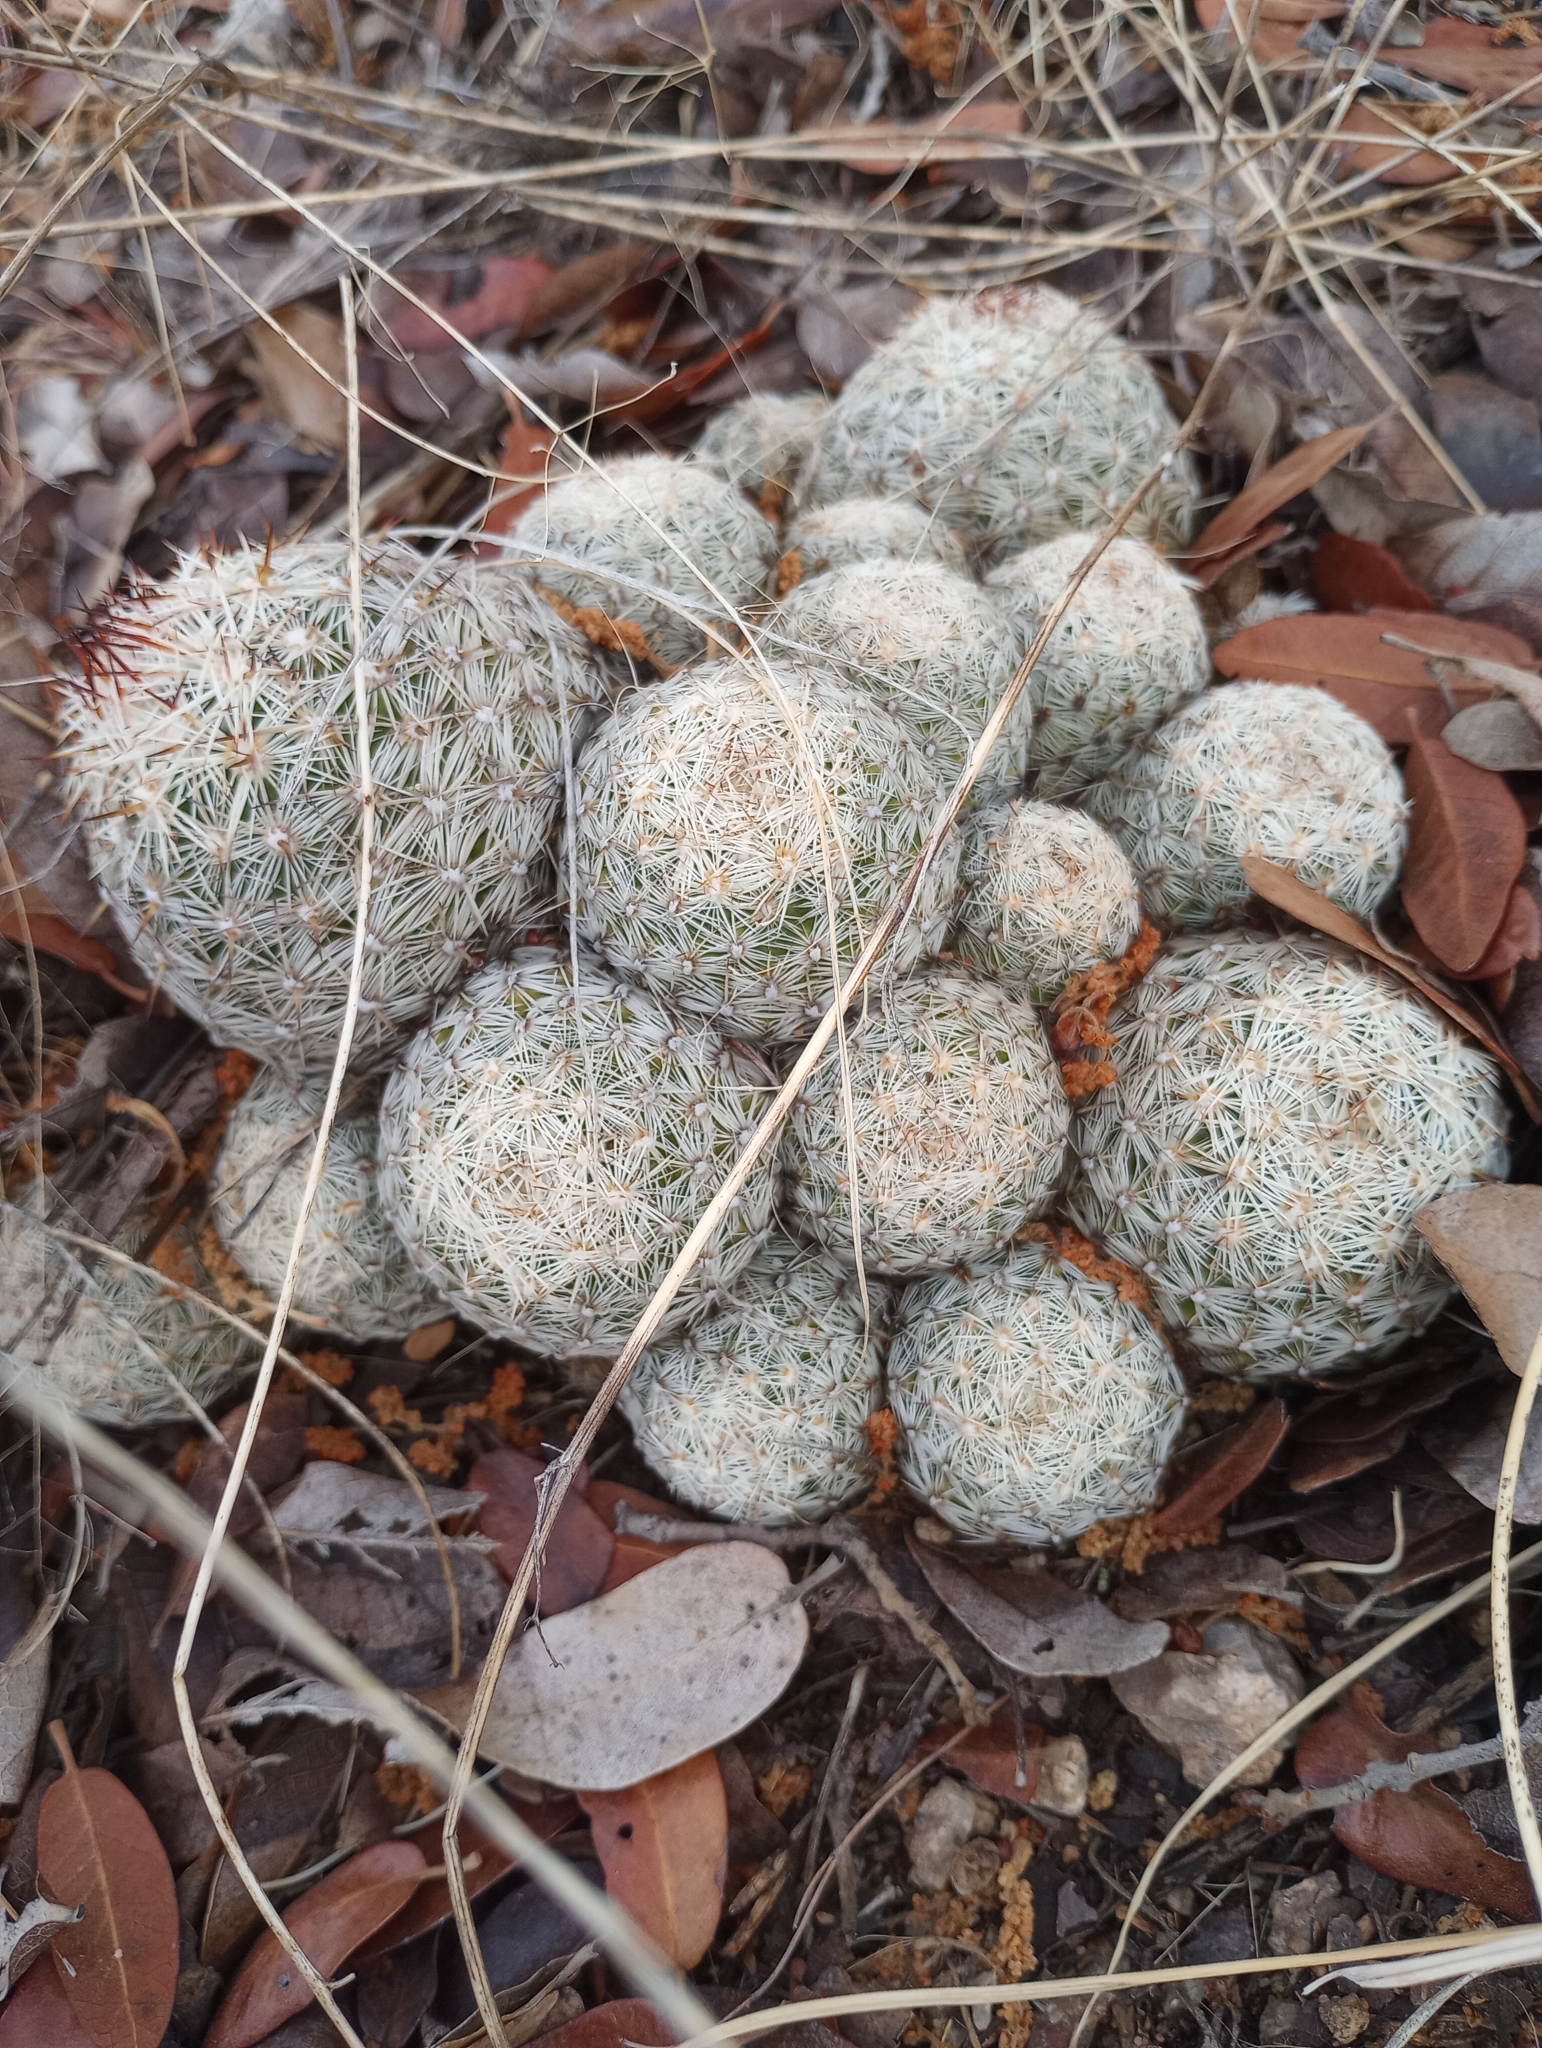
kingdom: Plantae
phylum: Tracheophyta
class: Magnoliopsida
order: Caryophyllales
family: Cactaceae
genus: Pelecyphora
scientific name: Pelecyphora vivipara
